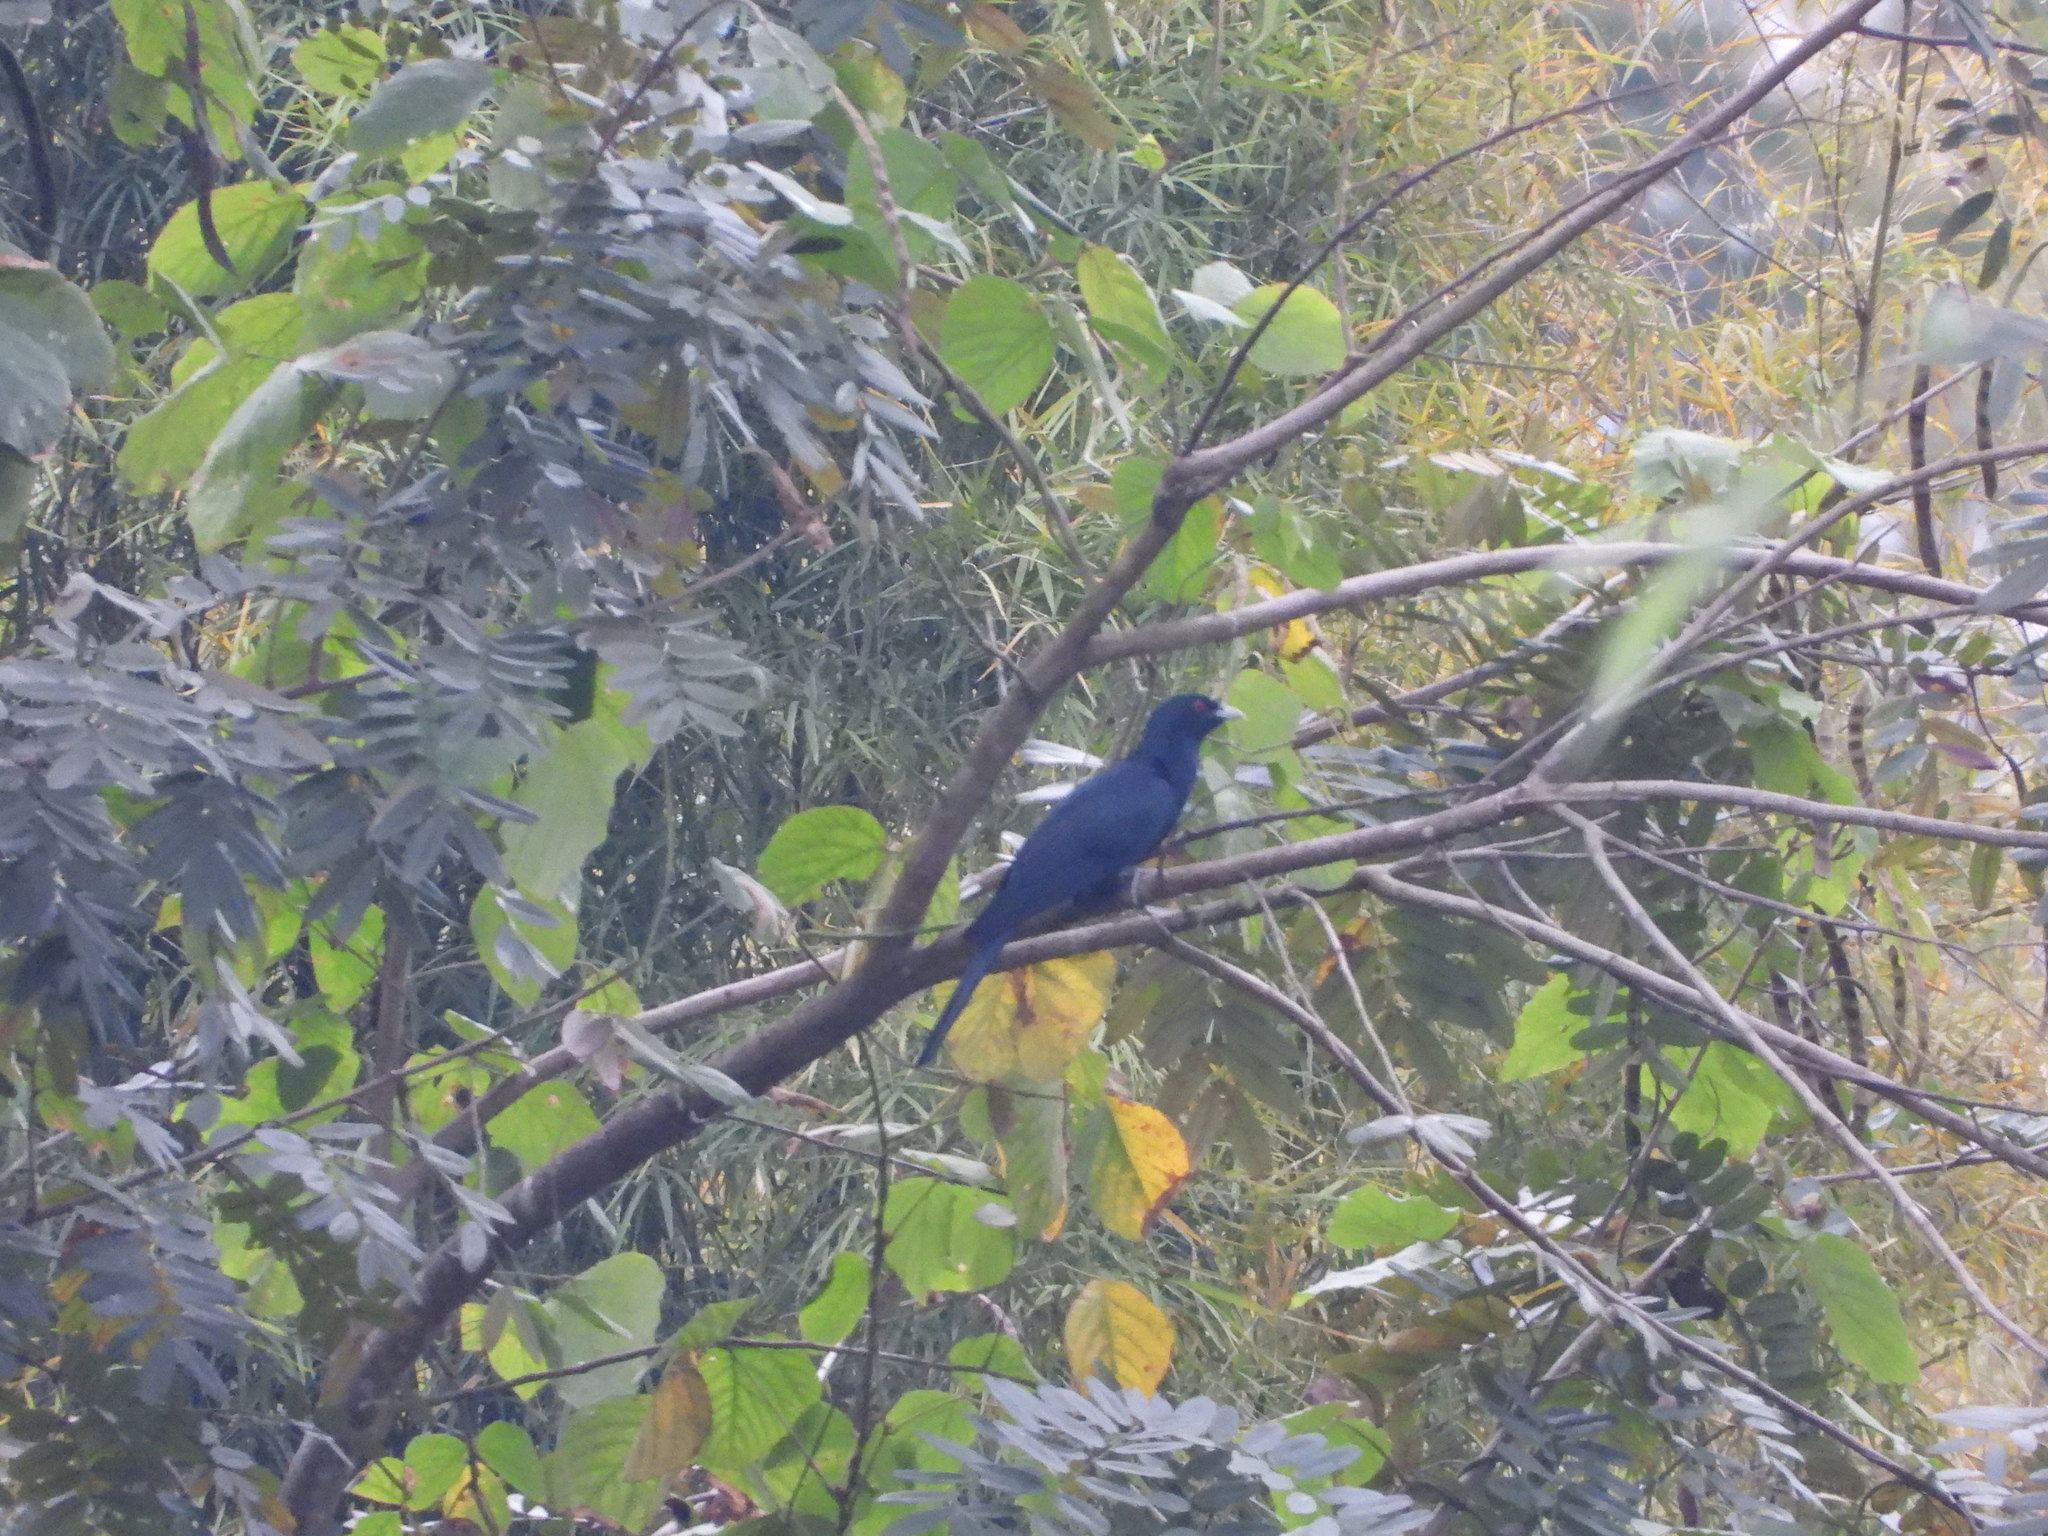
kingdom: Animalia
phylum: Chordata
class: Aves
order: Cuculiformes
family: Cuculidae
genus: Eudynamys
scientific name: Eudynamys scolopaceus
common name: Asian koel
